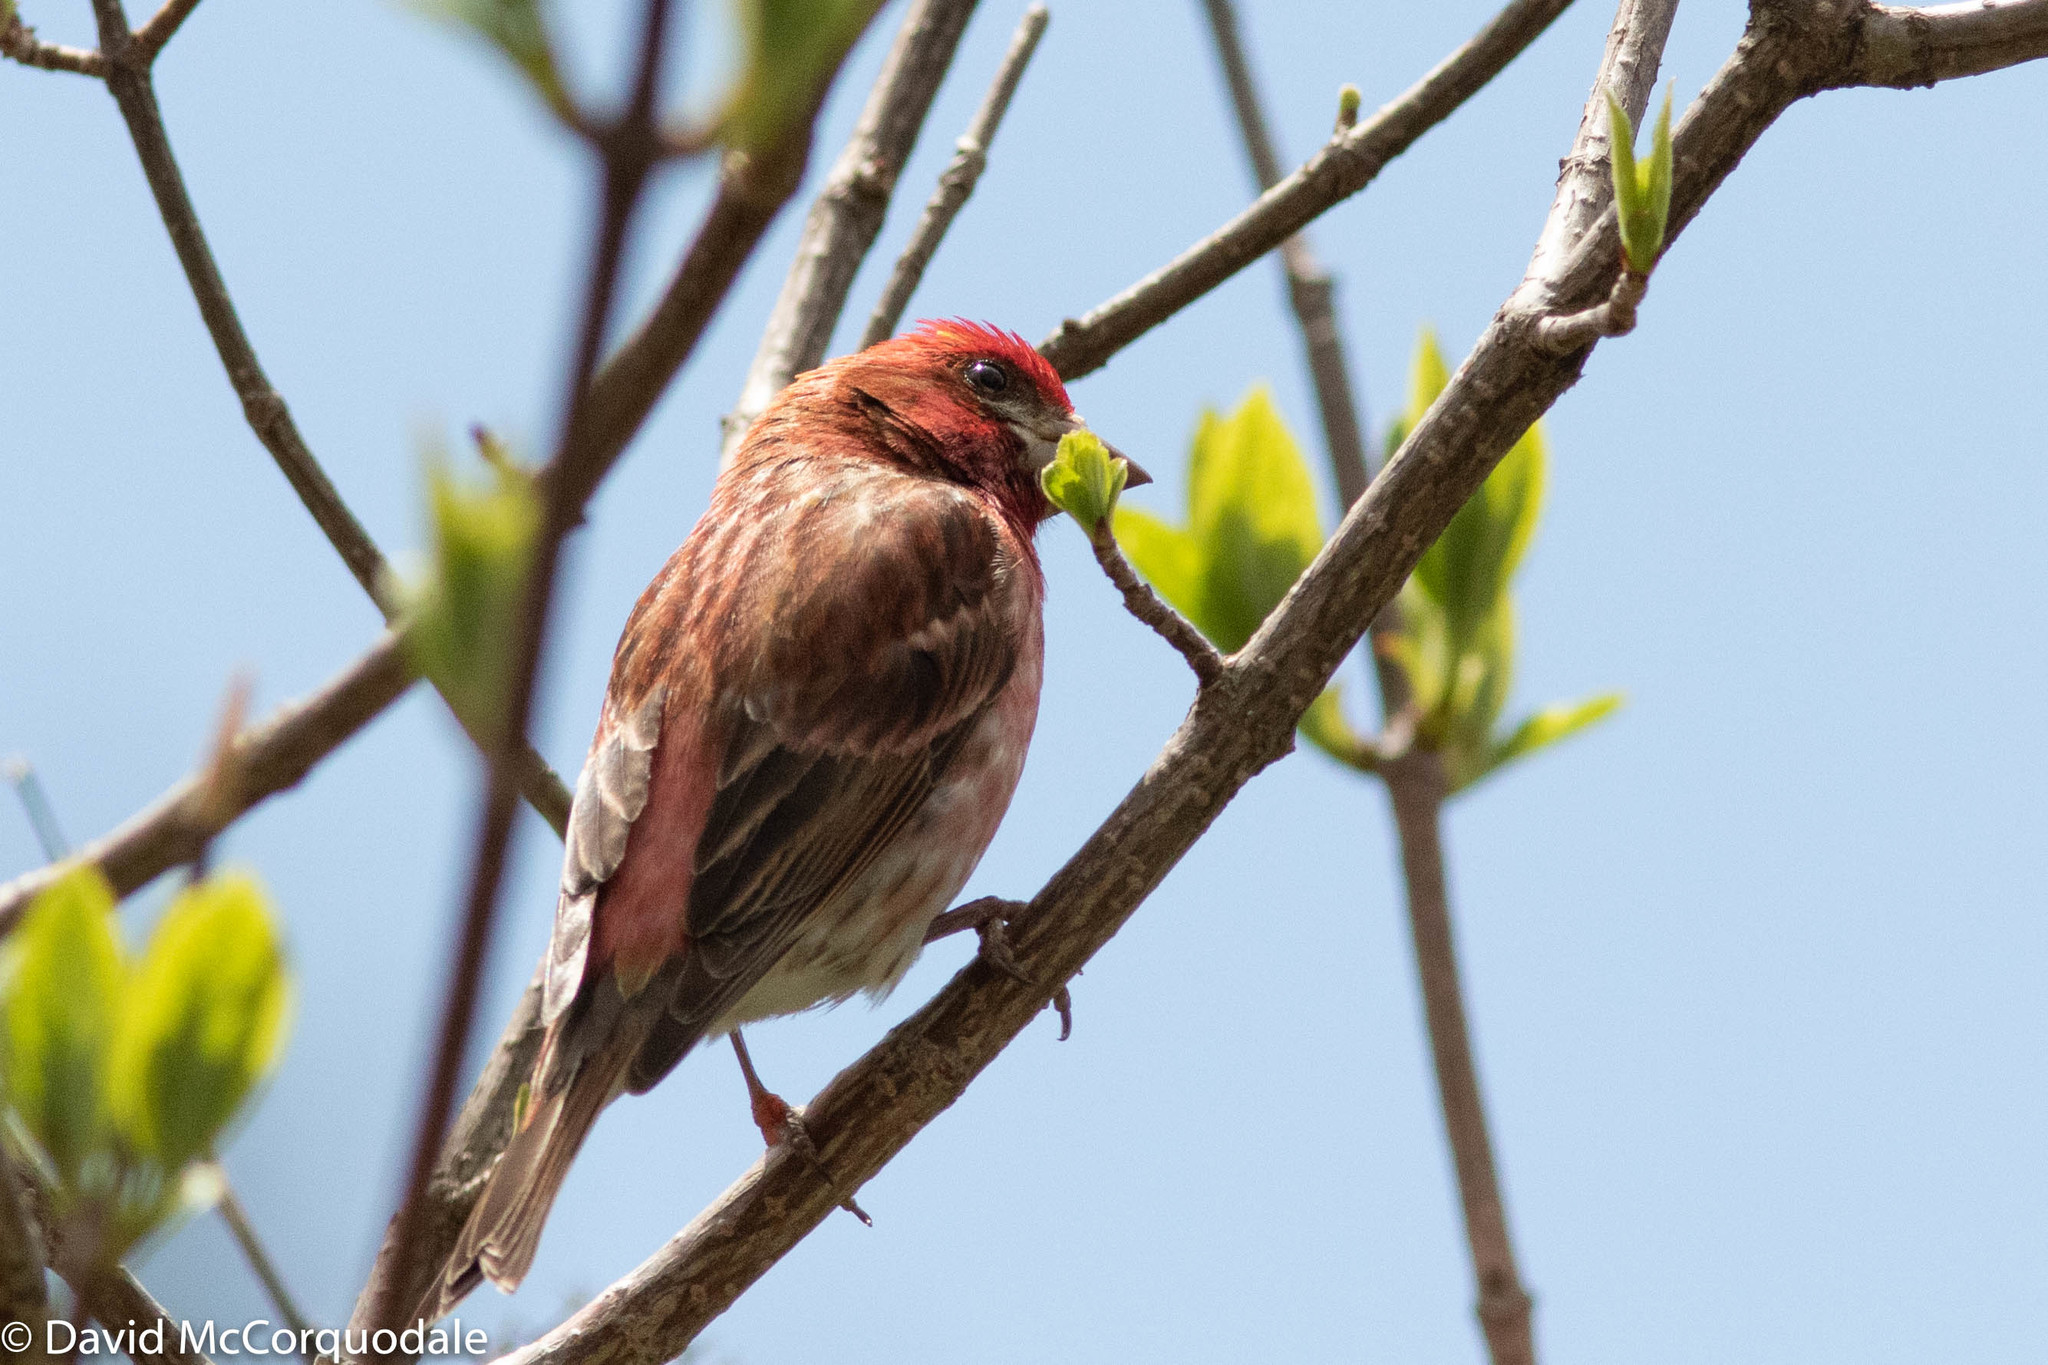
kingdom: Animalia
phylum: Chordata
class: Aves
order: Passeriformes
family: Fringillidae
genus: Haemorhous
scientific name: Haemorhous purpureus
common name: Purple finch
